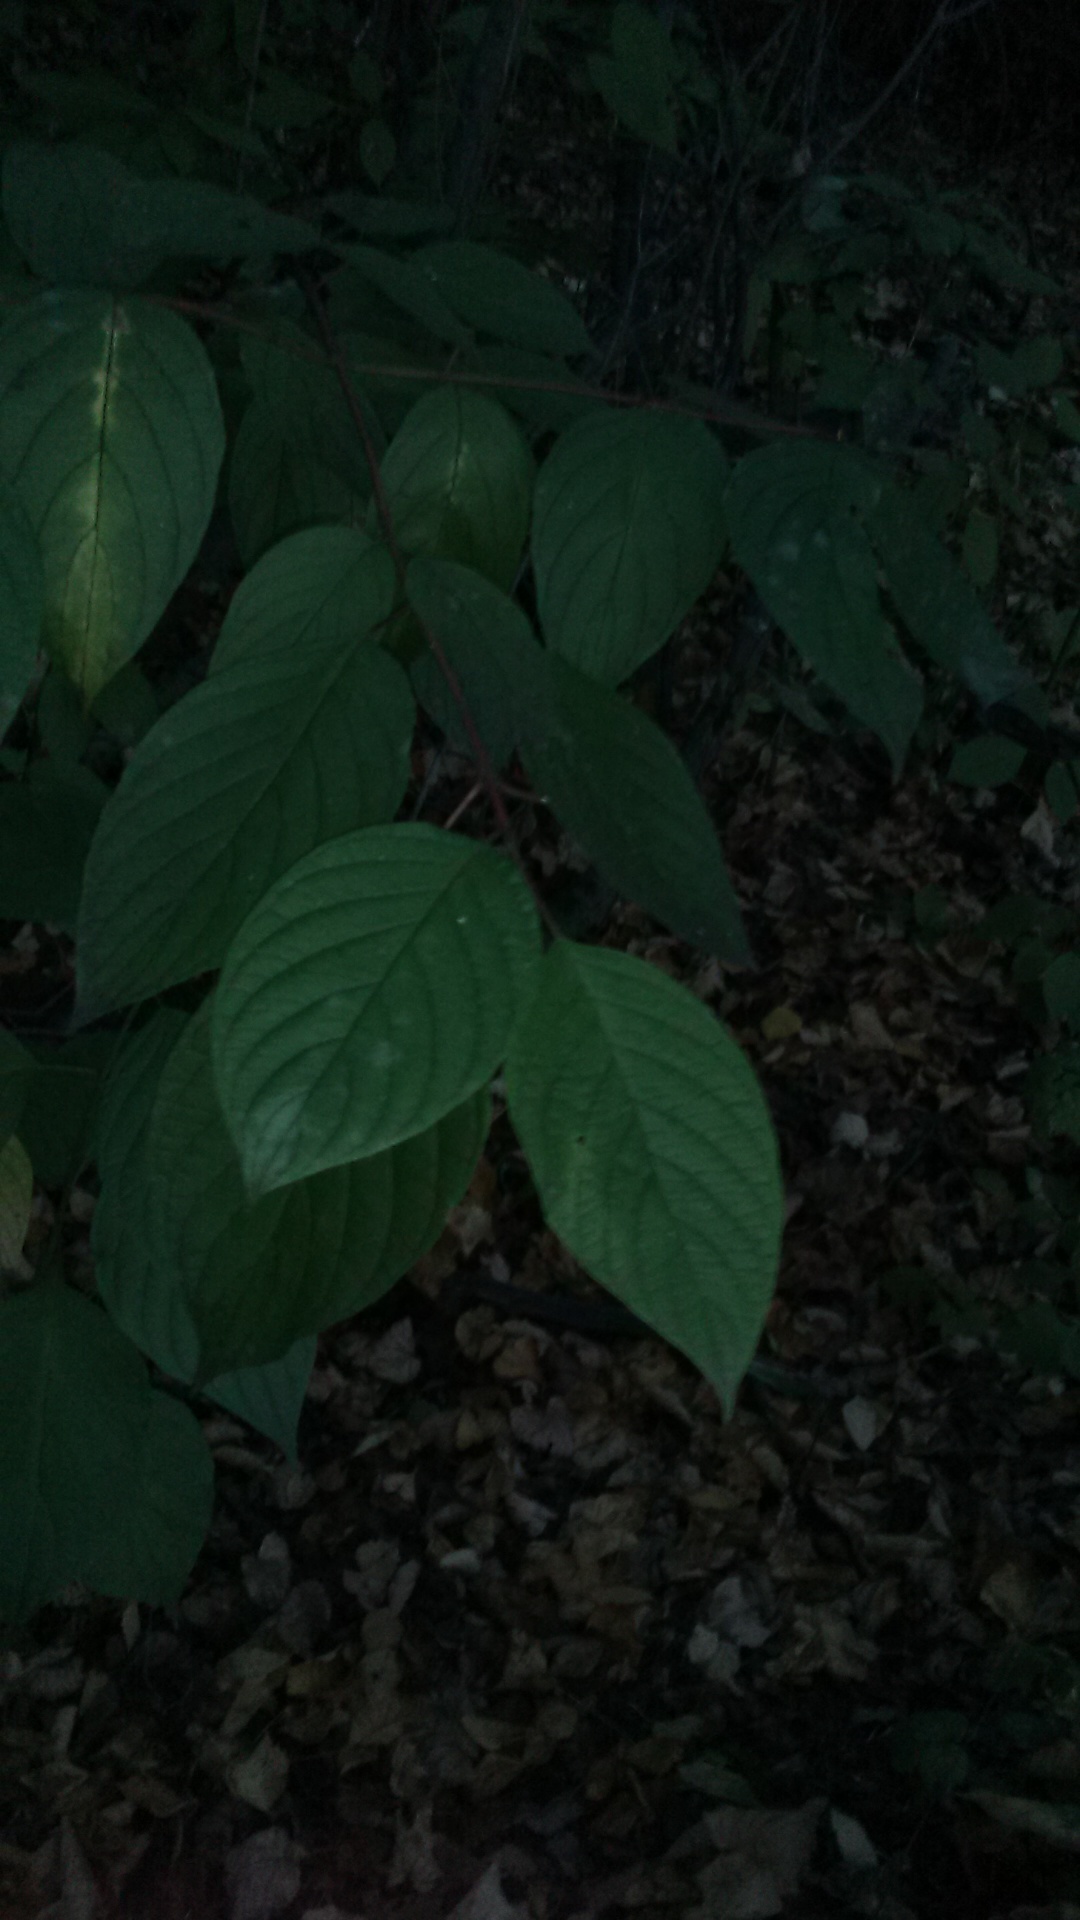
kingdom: Plantae
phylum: Tracheophyta
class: Magnoliopsida
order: Cornales
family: Cornaceae
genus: Cornus
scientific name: Cornus alba
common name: White dogwood
